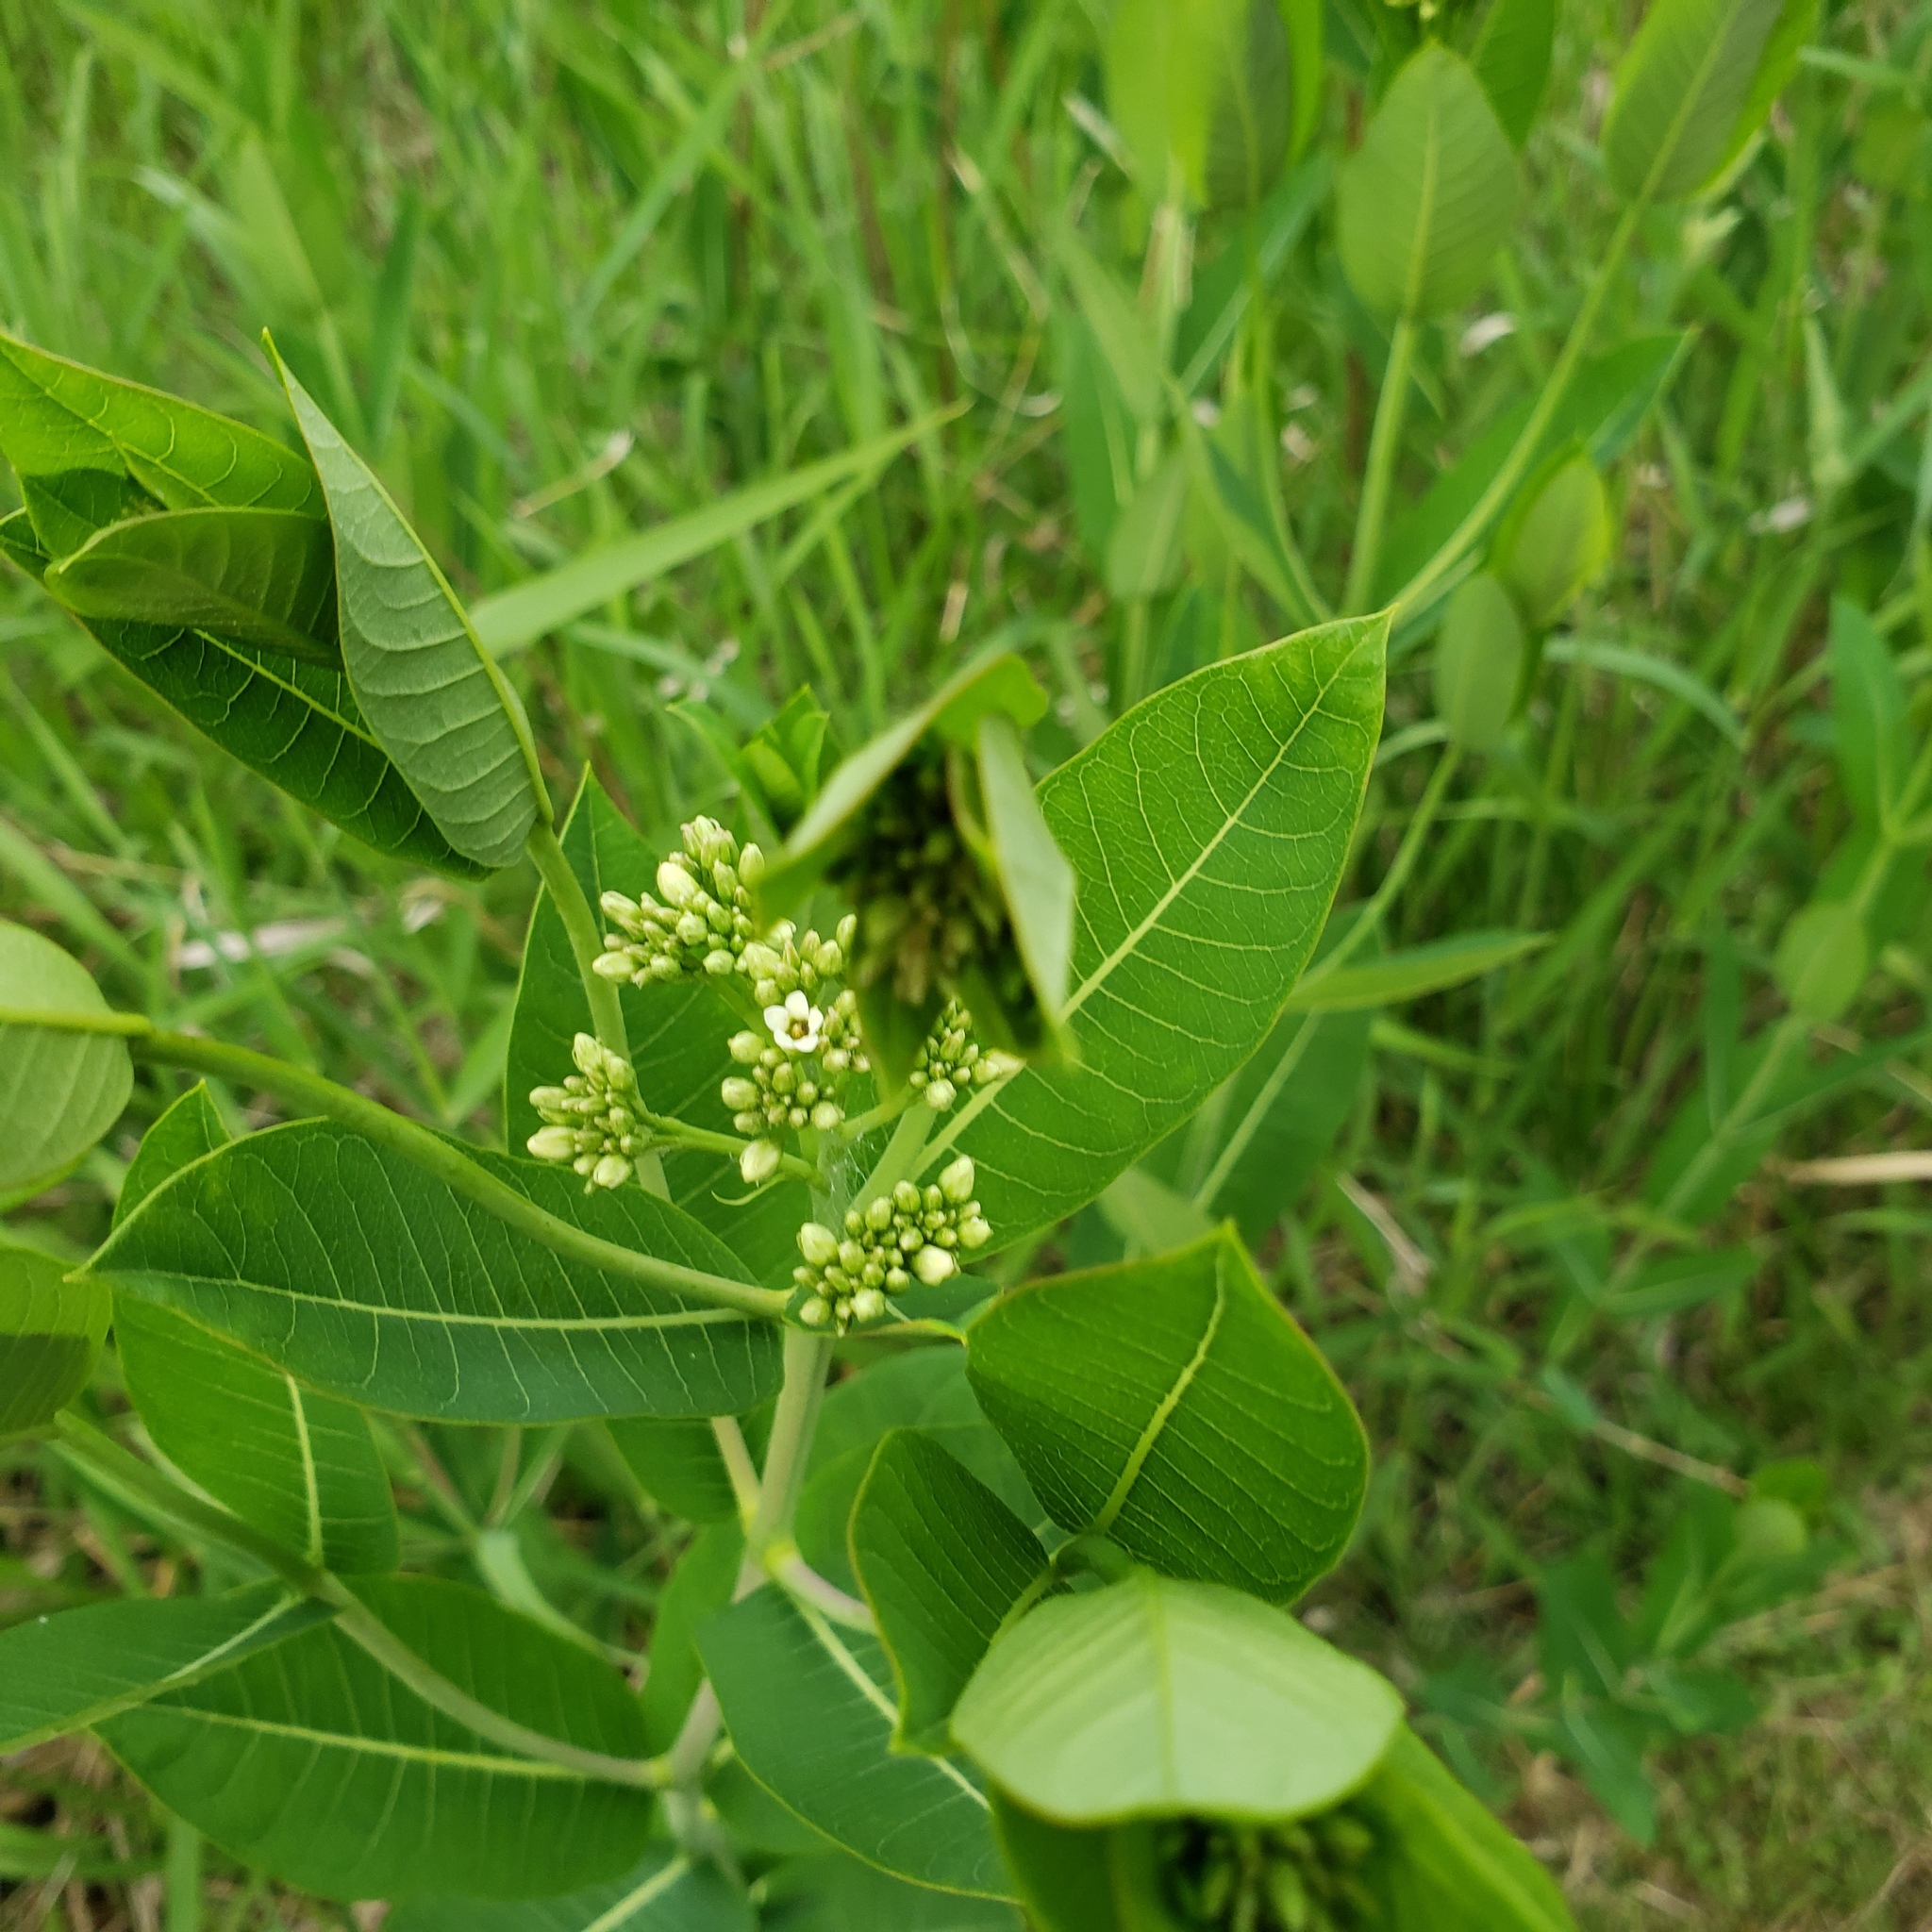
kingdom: Plantae
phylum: Tracheophyta
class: Magnoliopsida
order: Gentianales
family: Apocynaceae
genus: Apocynum
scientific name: Apocynum cannabinum
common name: Hemp dogbane
